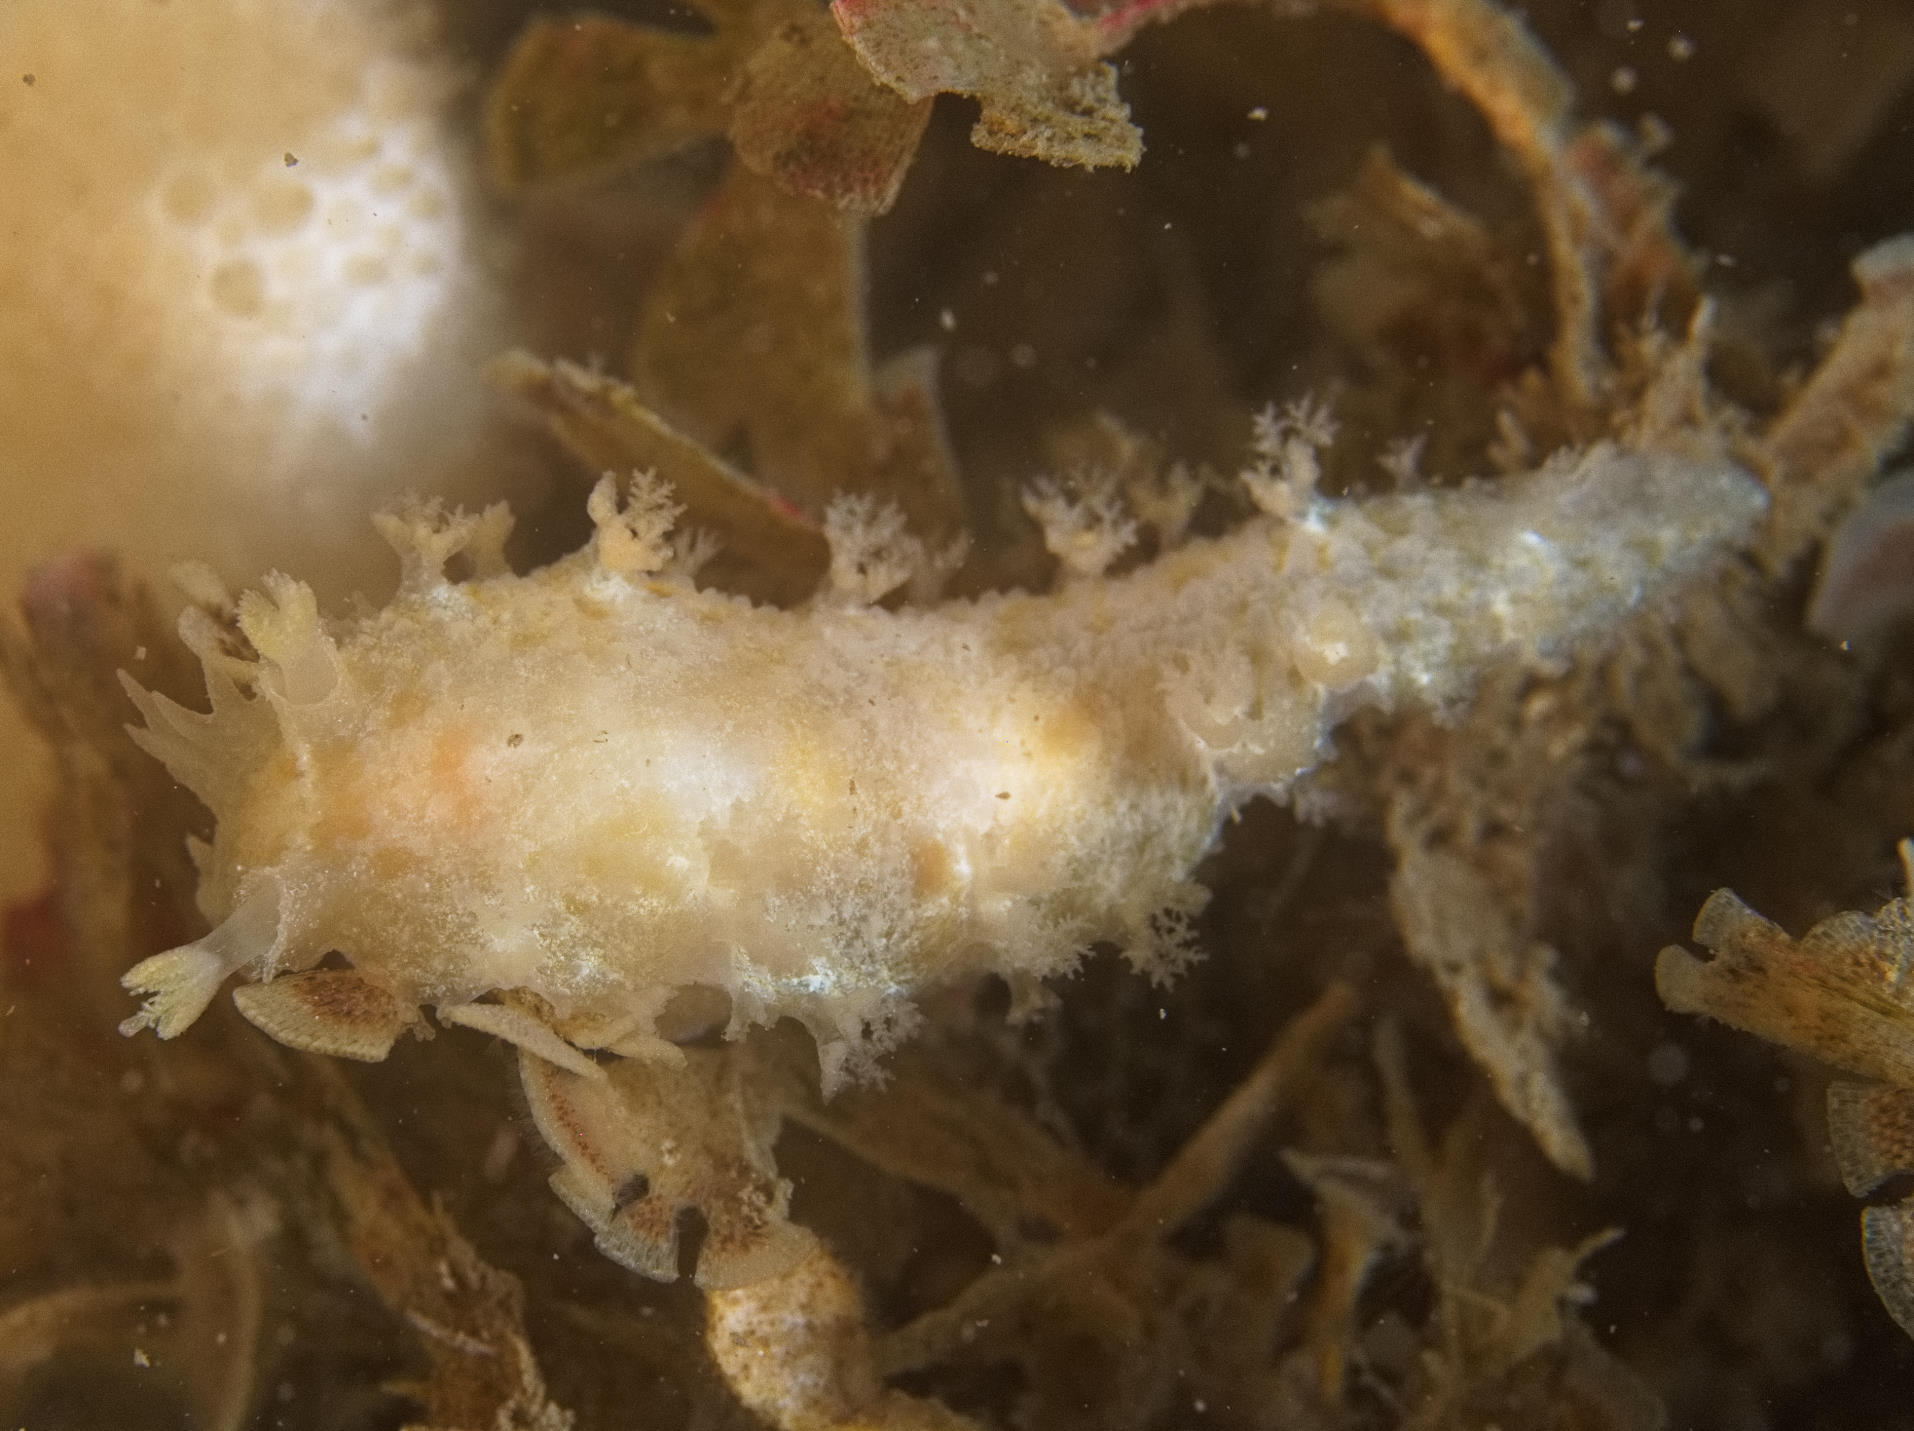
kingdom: Animalia
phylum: Mollusca
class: Gastropoda
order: Nudibranchia
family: Tritoniidae
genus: Tritonia
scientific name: Tritonia hombergii
